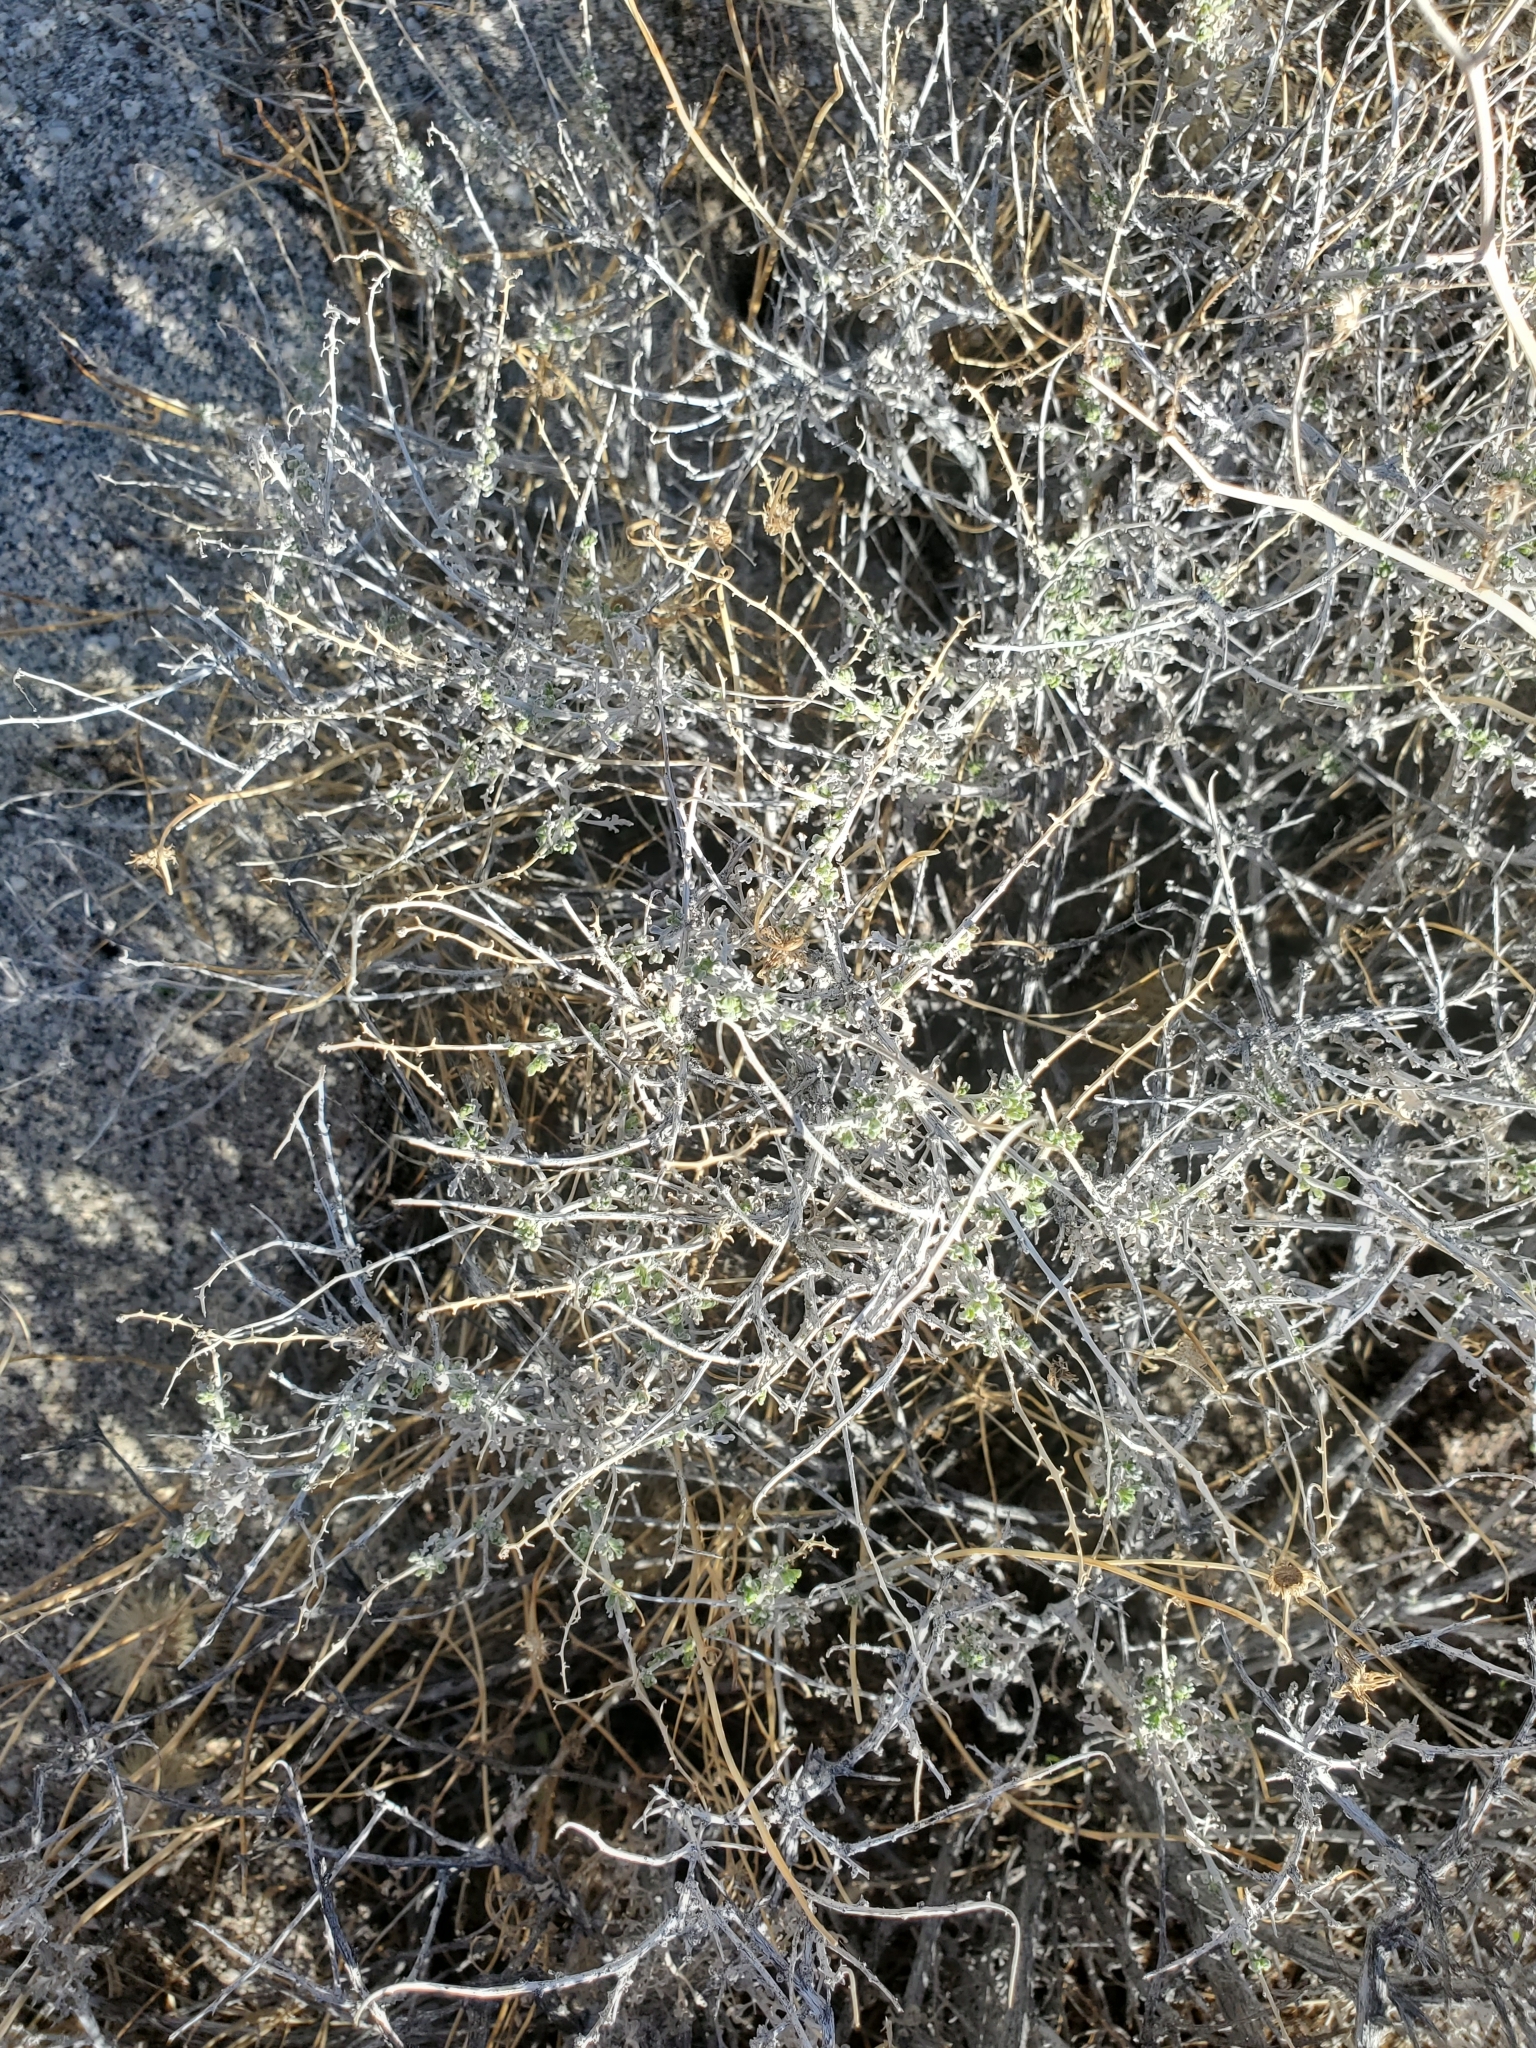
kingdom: Plantae
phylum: Tracheophyta
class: Magnoliopsida
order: Asterales
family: Asteraceae
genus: Ambrosia
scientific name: Ambrosia dumosa
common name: Bur-sage
